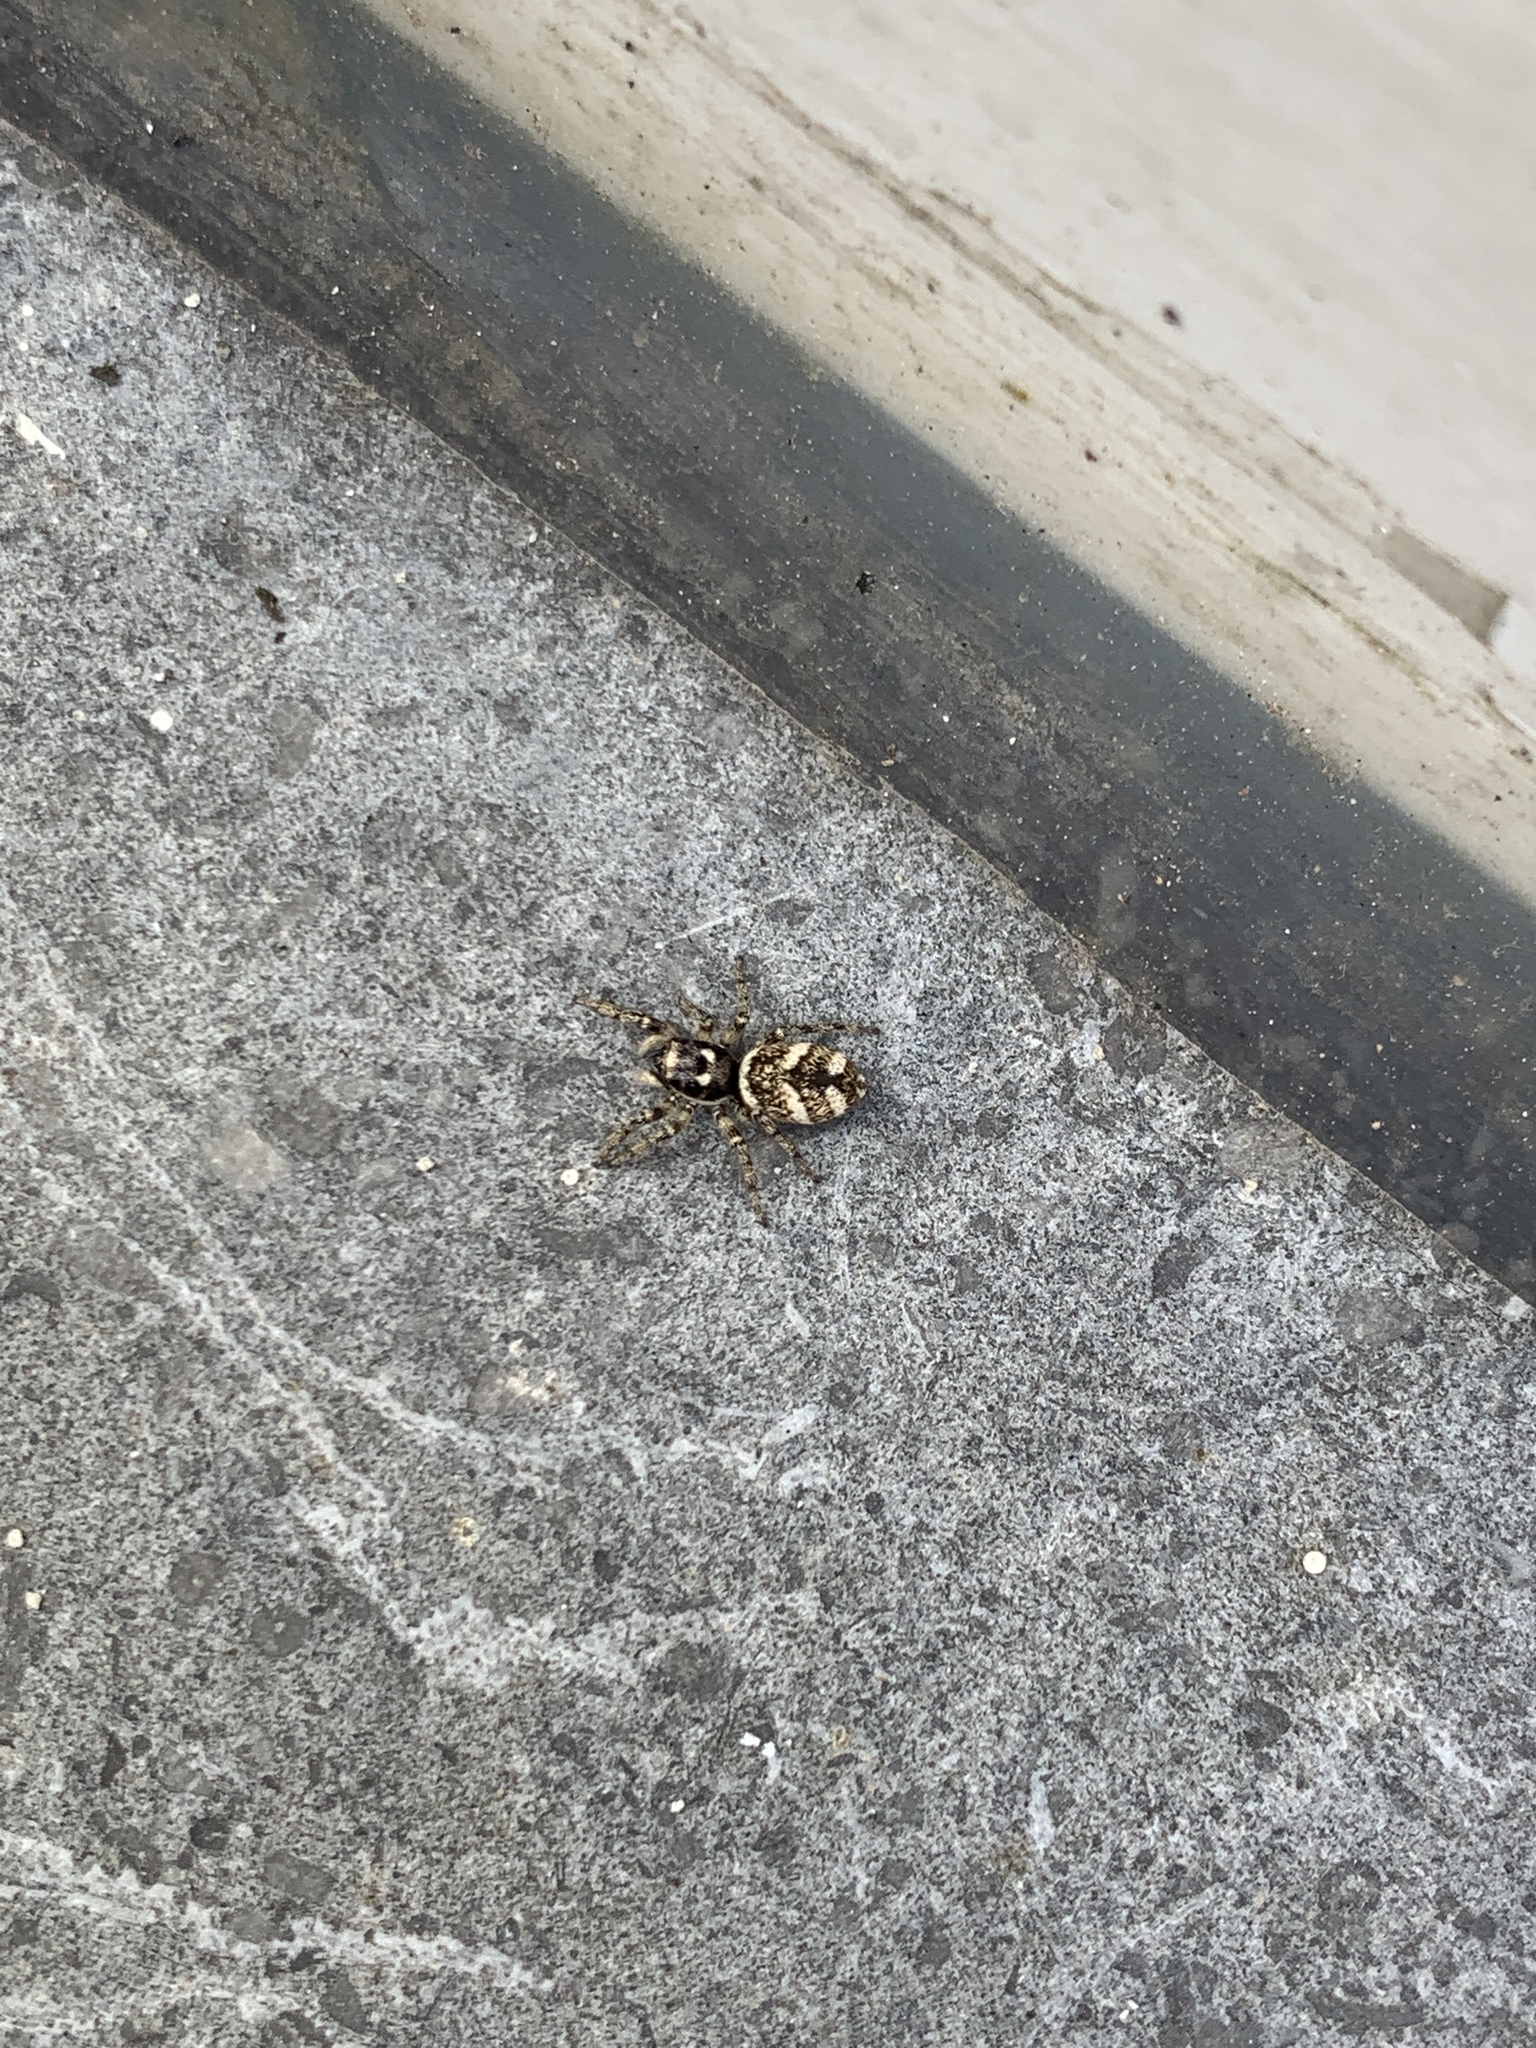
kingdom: Animalia
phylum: Arthropoda
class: Arachnida
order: Araneae
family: Salticidae
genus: Salticus
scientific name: Salticus scenicus
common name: Zebra jumper
